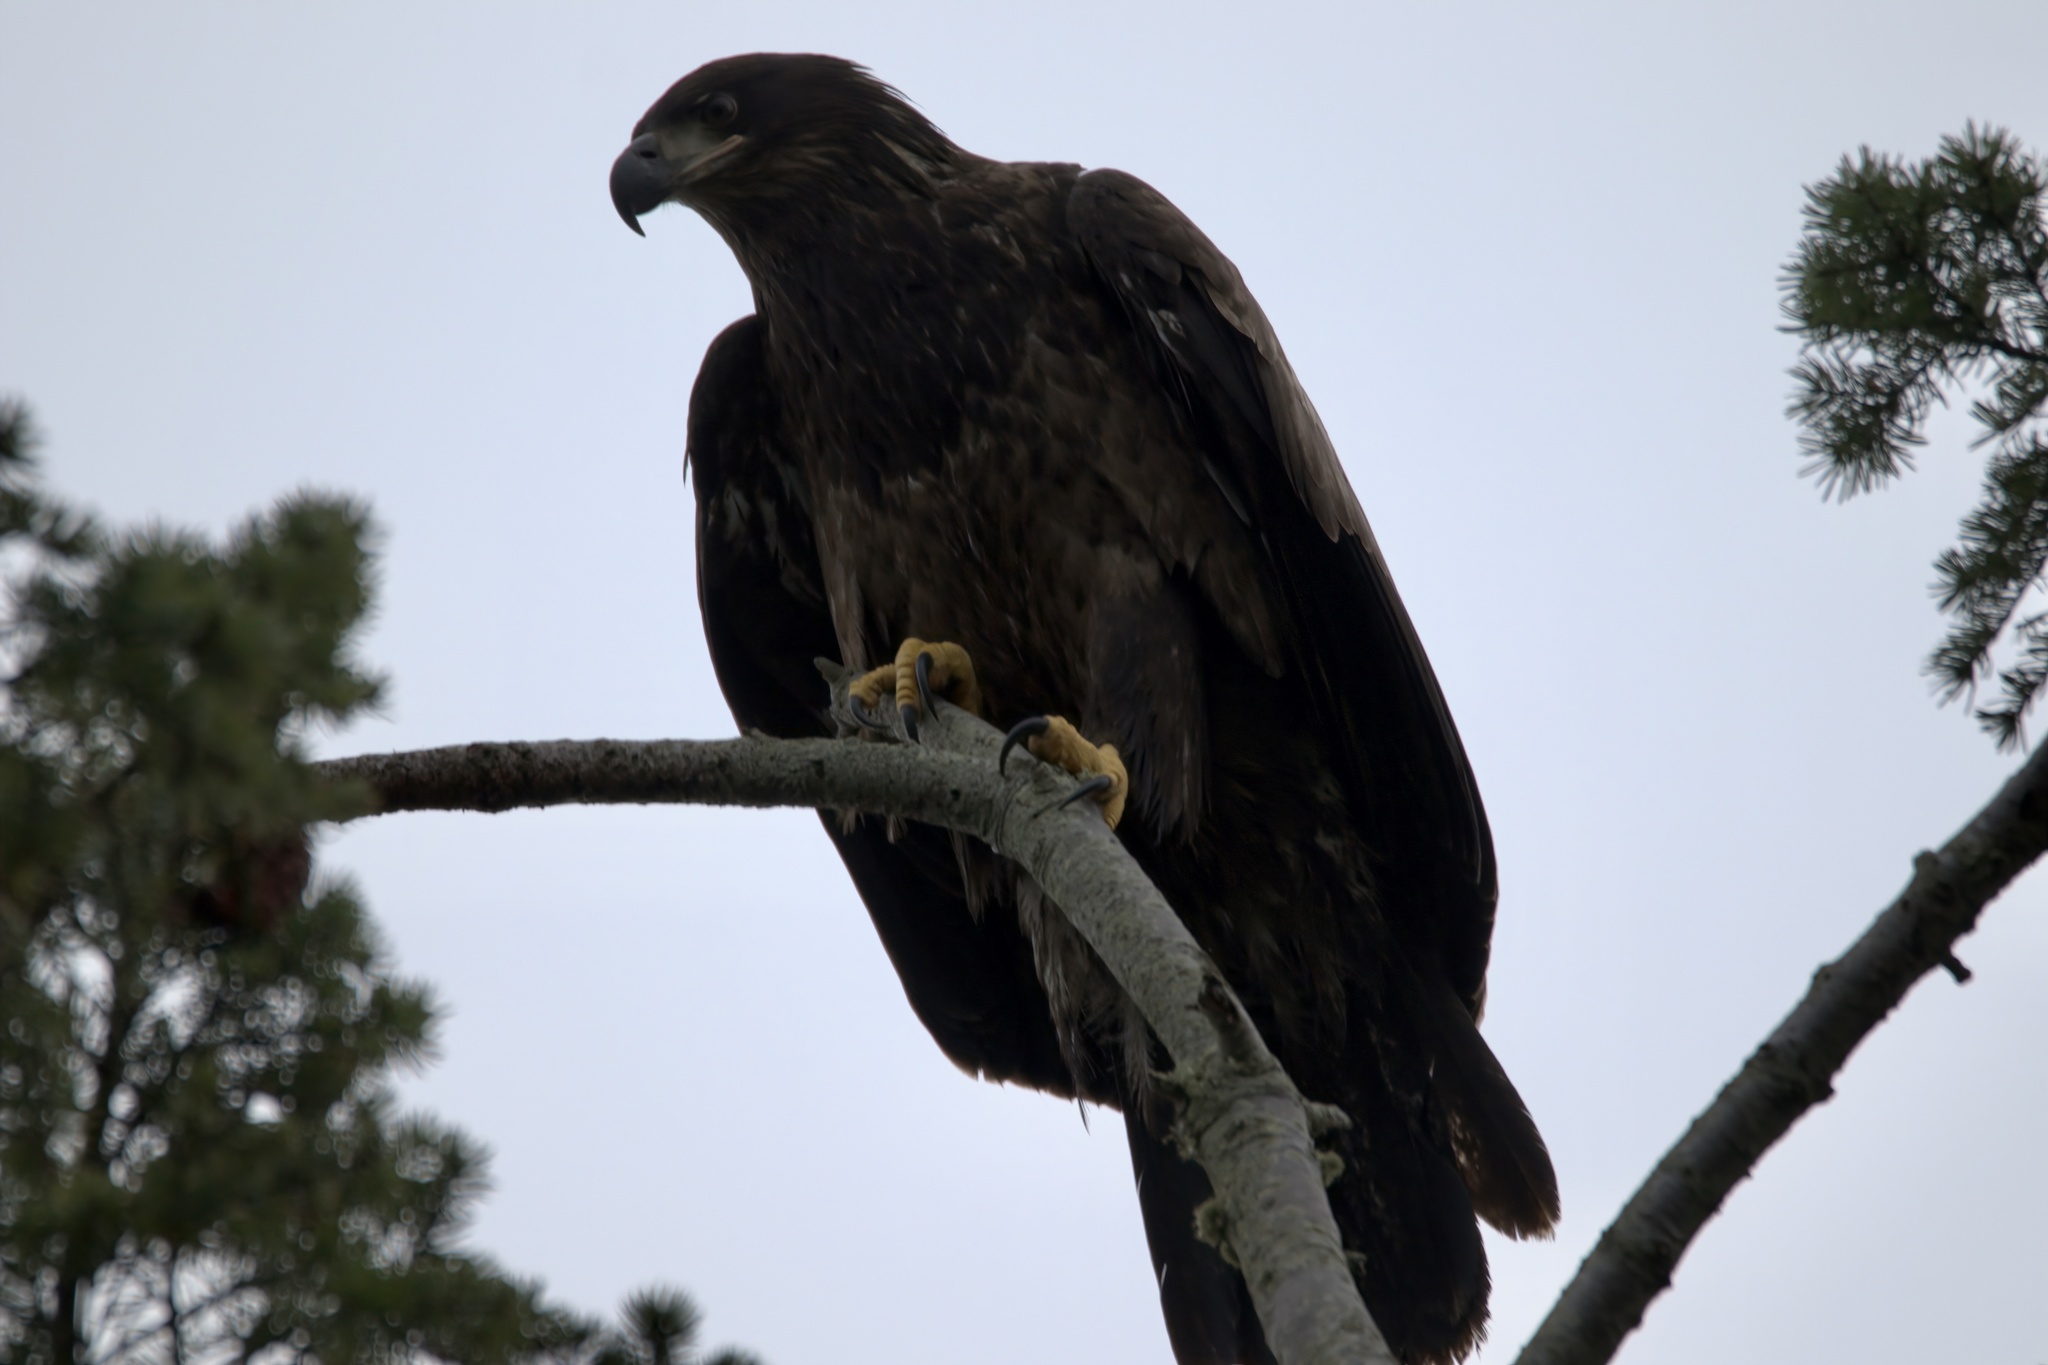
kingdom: Animalia
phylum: Chordata
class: Aves
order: Accipitriformes
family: Accipitridae
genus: Haliaeetus
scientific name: Haliaeetus leucocephalus
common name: Bald eagle
